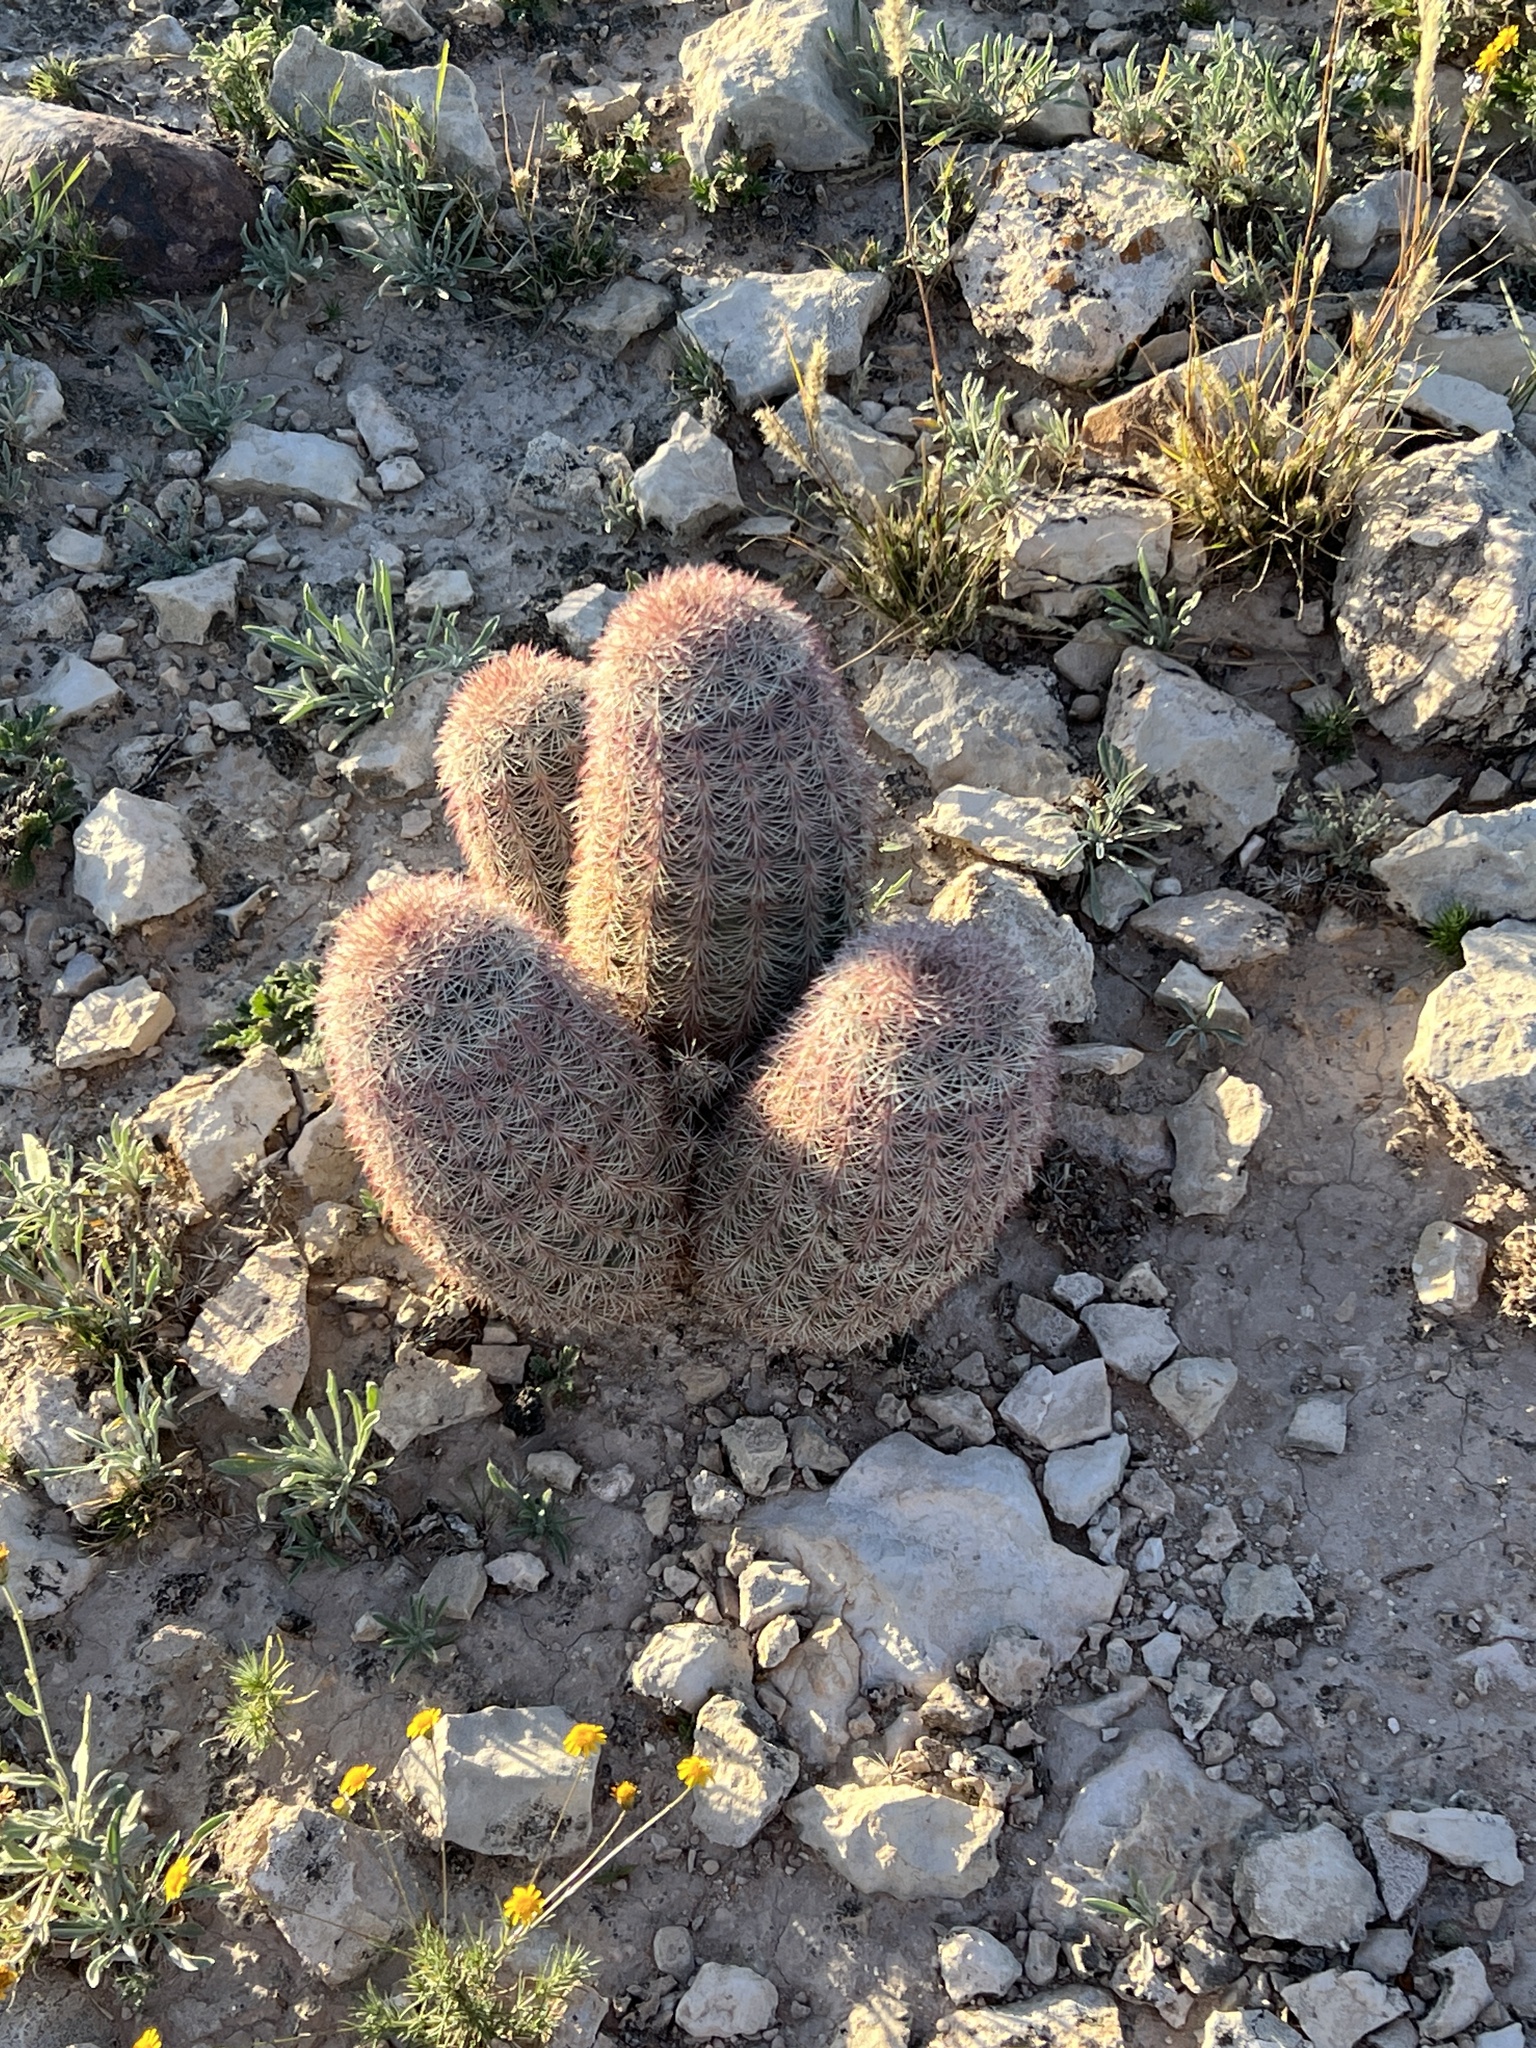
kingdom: Plantae
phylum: Tracheophyta
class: Magnoliopsida
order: Caryophyllales
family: Cactaceae
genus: Echinocereus
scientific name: Echinocereus dasyacanthus
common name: Spiny hedgehog cactus
